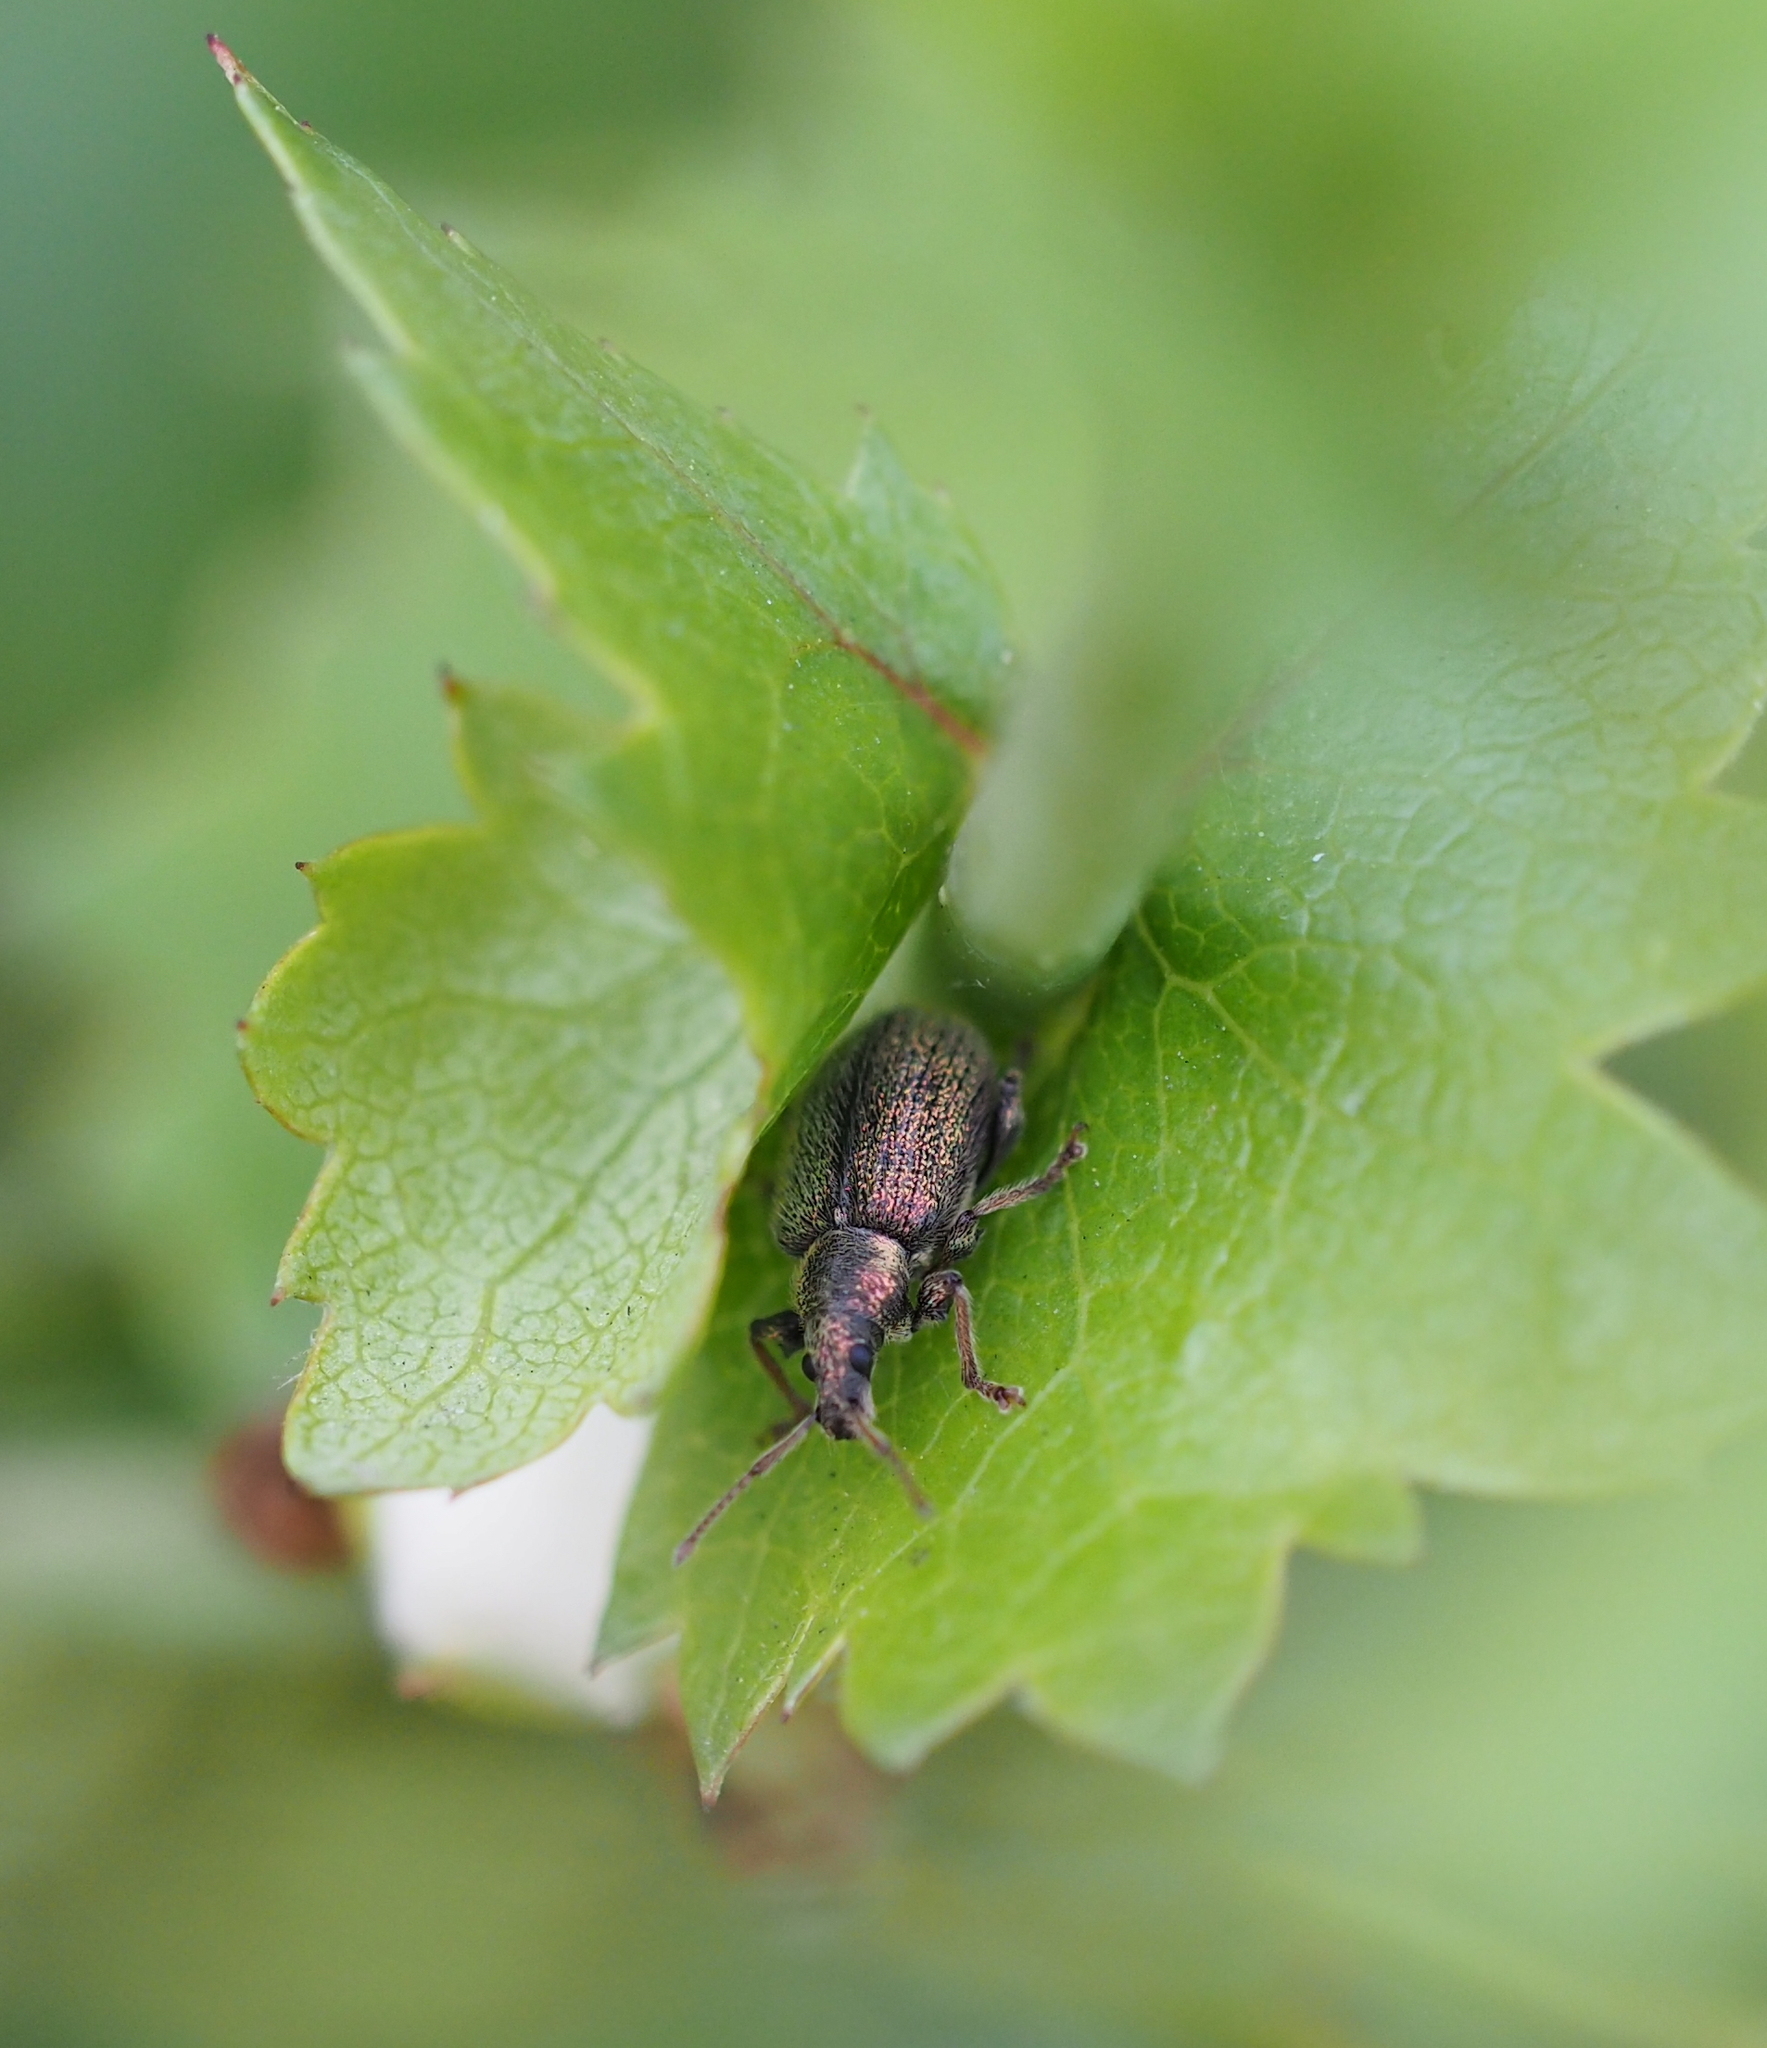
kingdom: Animalia
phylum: Arthropoda
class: Insecta
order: Coleoptera
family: Curculionidae
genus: Phyllobius
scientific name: Phyllobius betulinus
